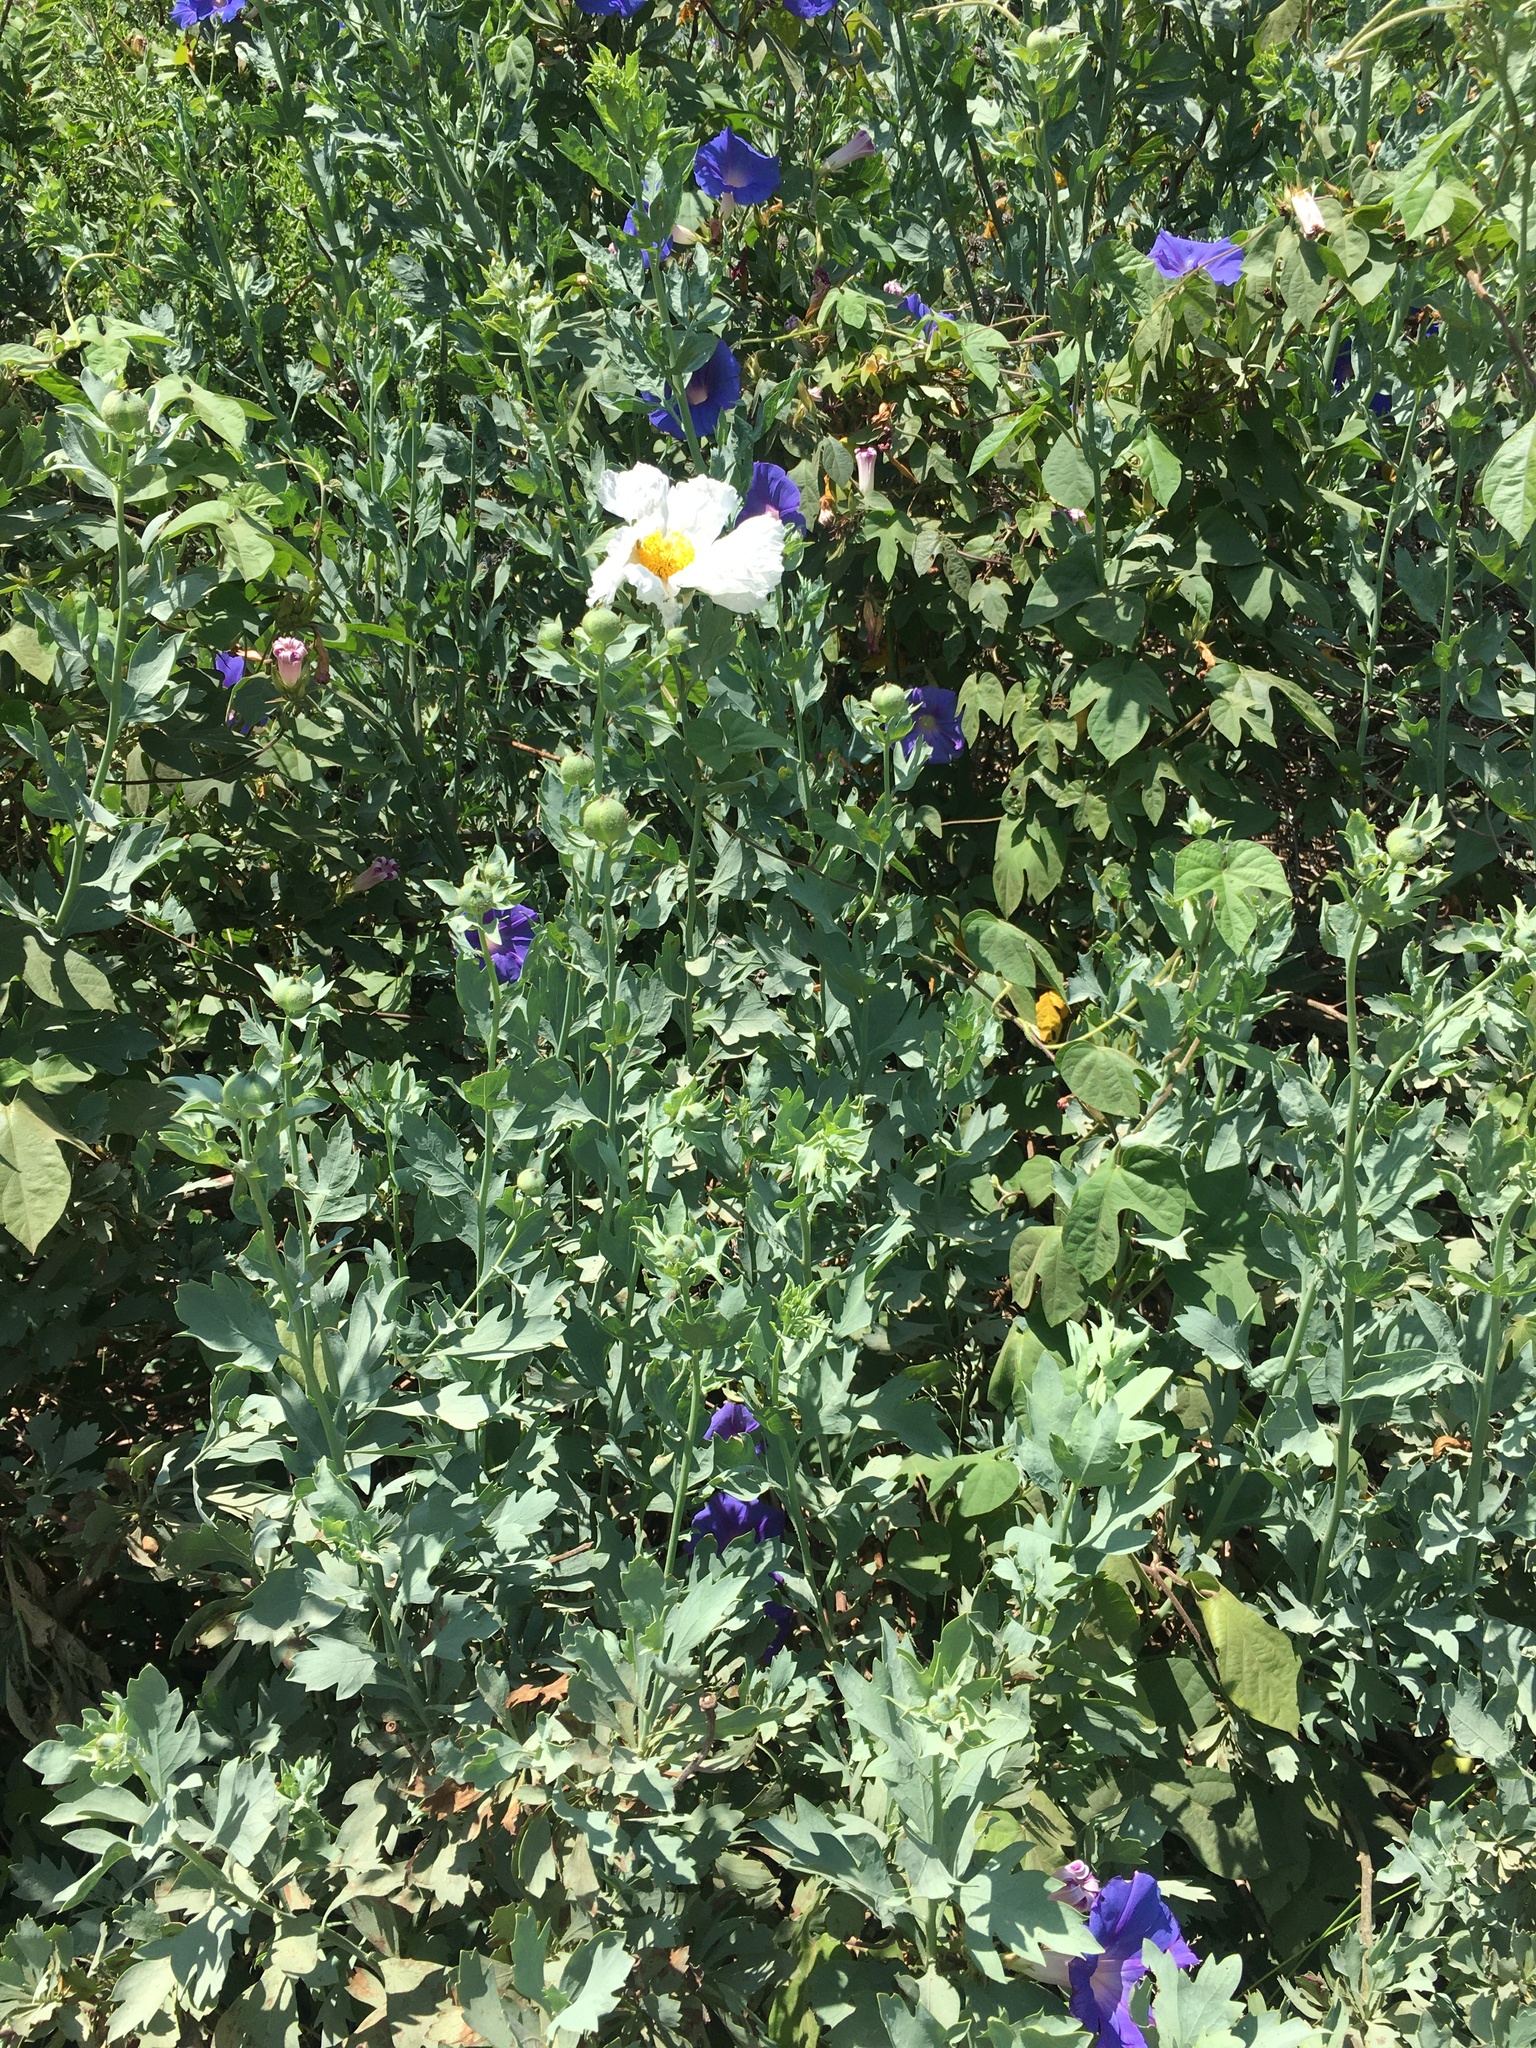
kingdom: Plantae
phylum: Tracheophyta
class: Magnoliopsida
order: Ranunculales
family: Papaveraceae
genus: Romneya
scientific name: Romneya coulteri
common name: California tree-poppy
